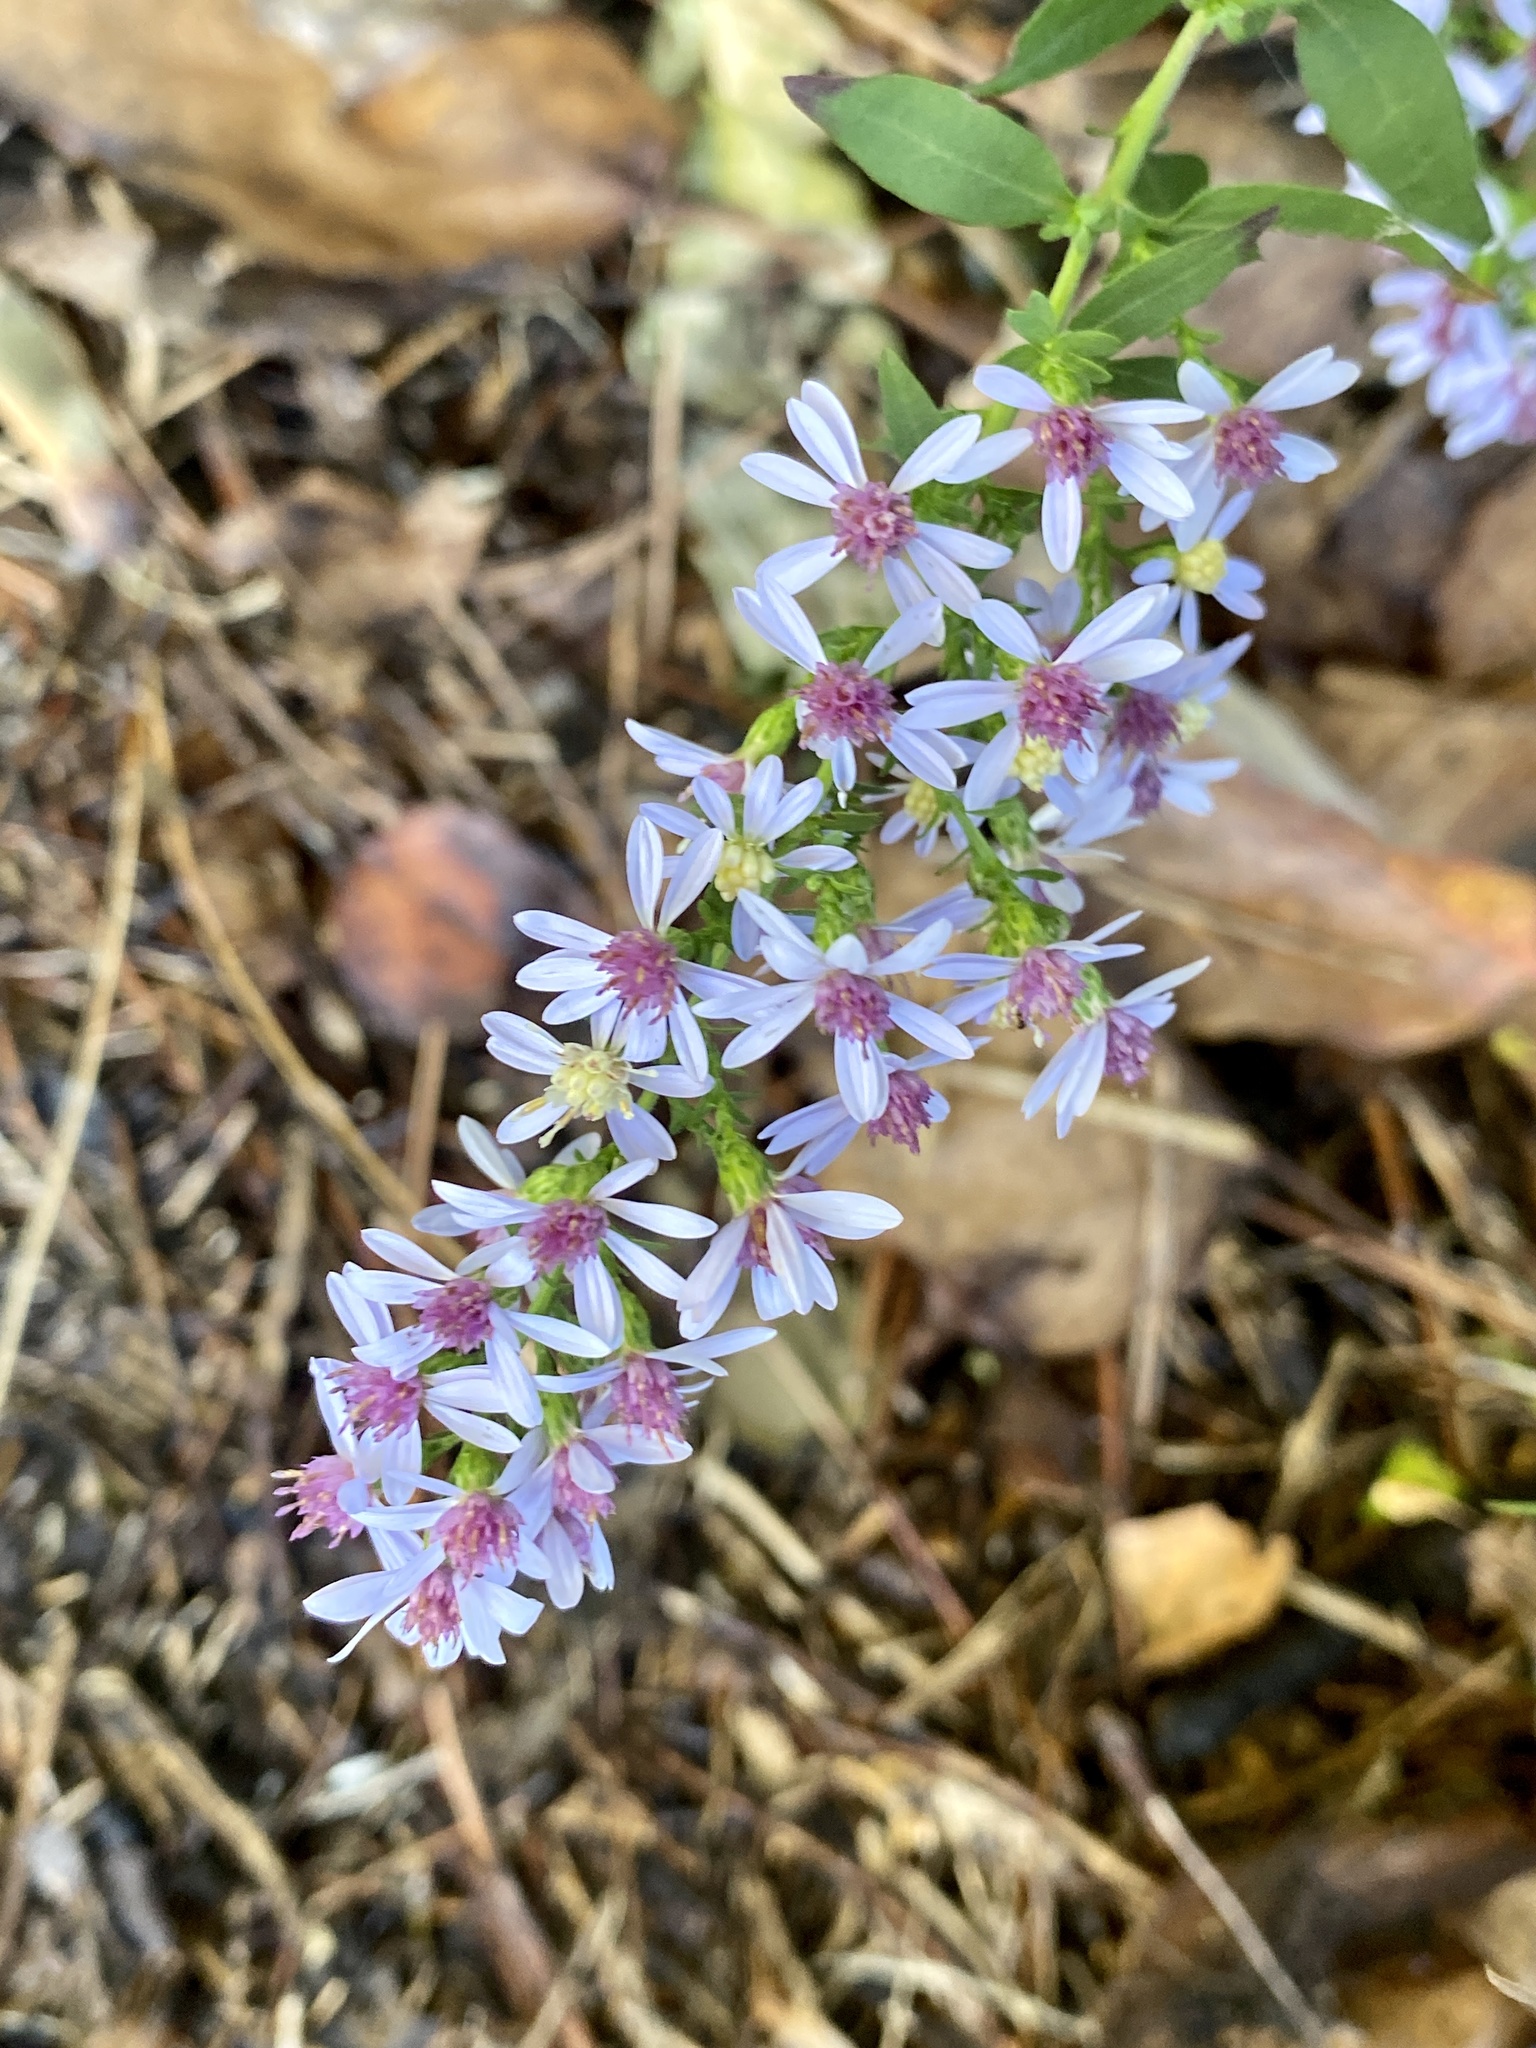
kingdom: Plantae
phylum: Tracheophyta
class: Magnoliopsida
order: Asterales
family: Asteraceae
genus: Symphyotrichum
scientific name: Symphyotrichum cordifolium
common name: Beeweed
